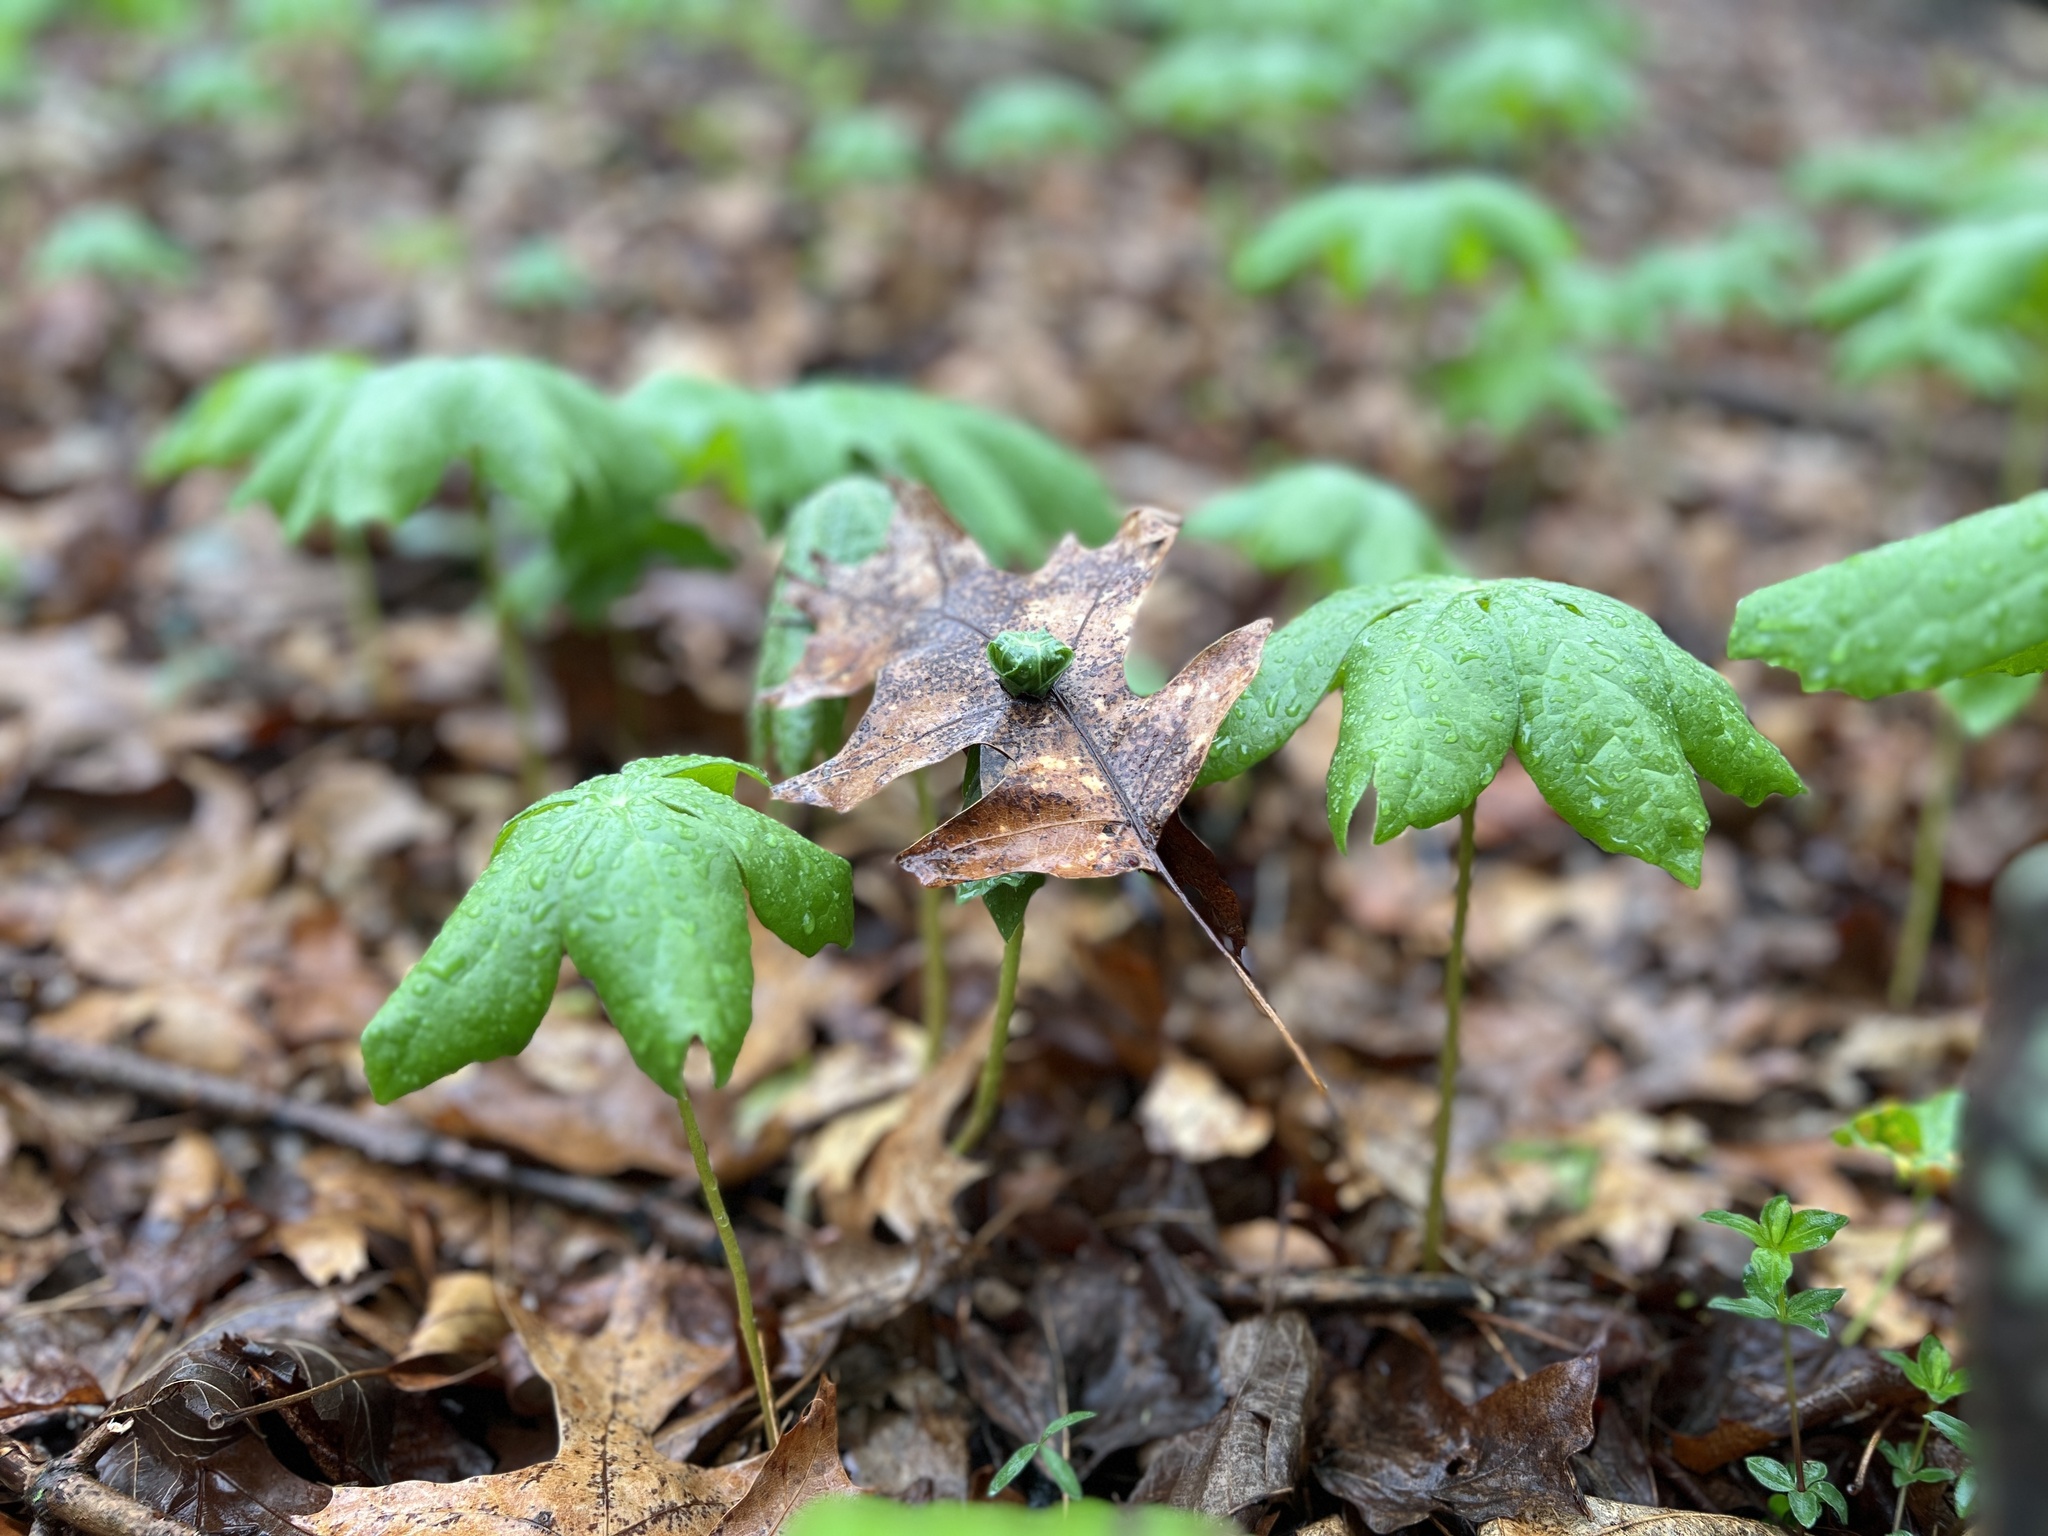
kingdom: Plantae
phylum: Tracheophyta
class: Magnoliopsida
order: Ranunculales
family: Berberidaceae
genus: Podophyllum
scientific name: Podophyllum peltatum
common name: Wild mandrake
